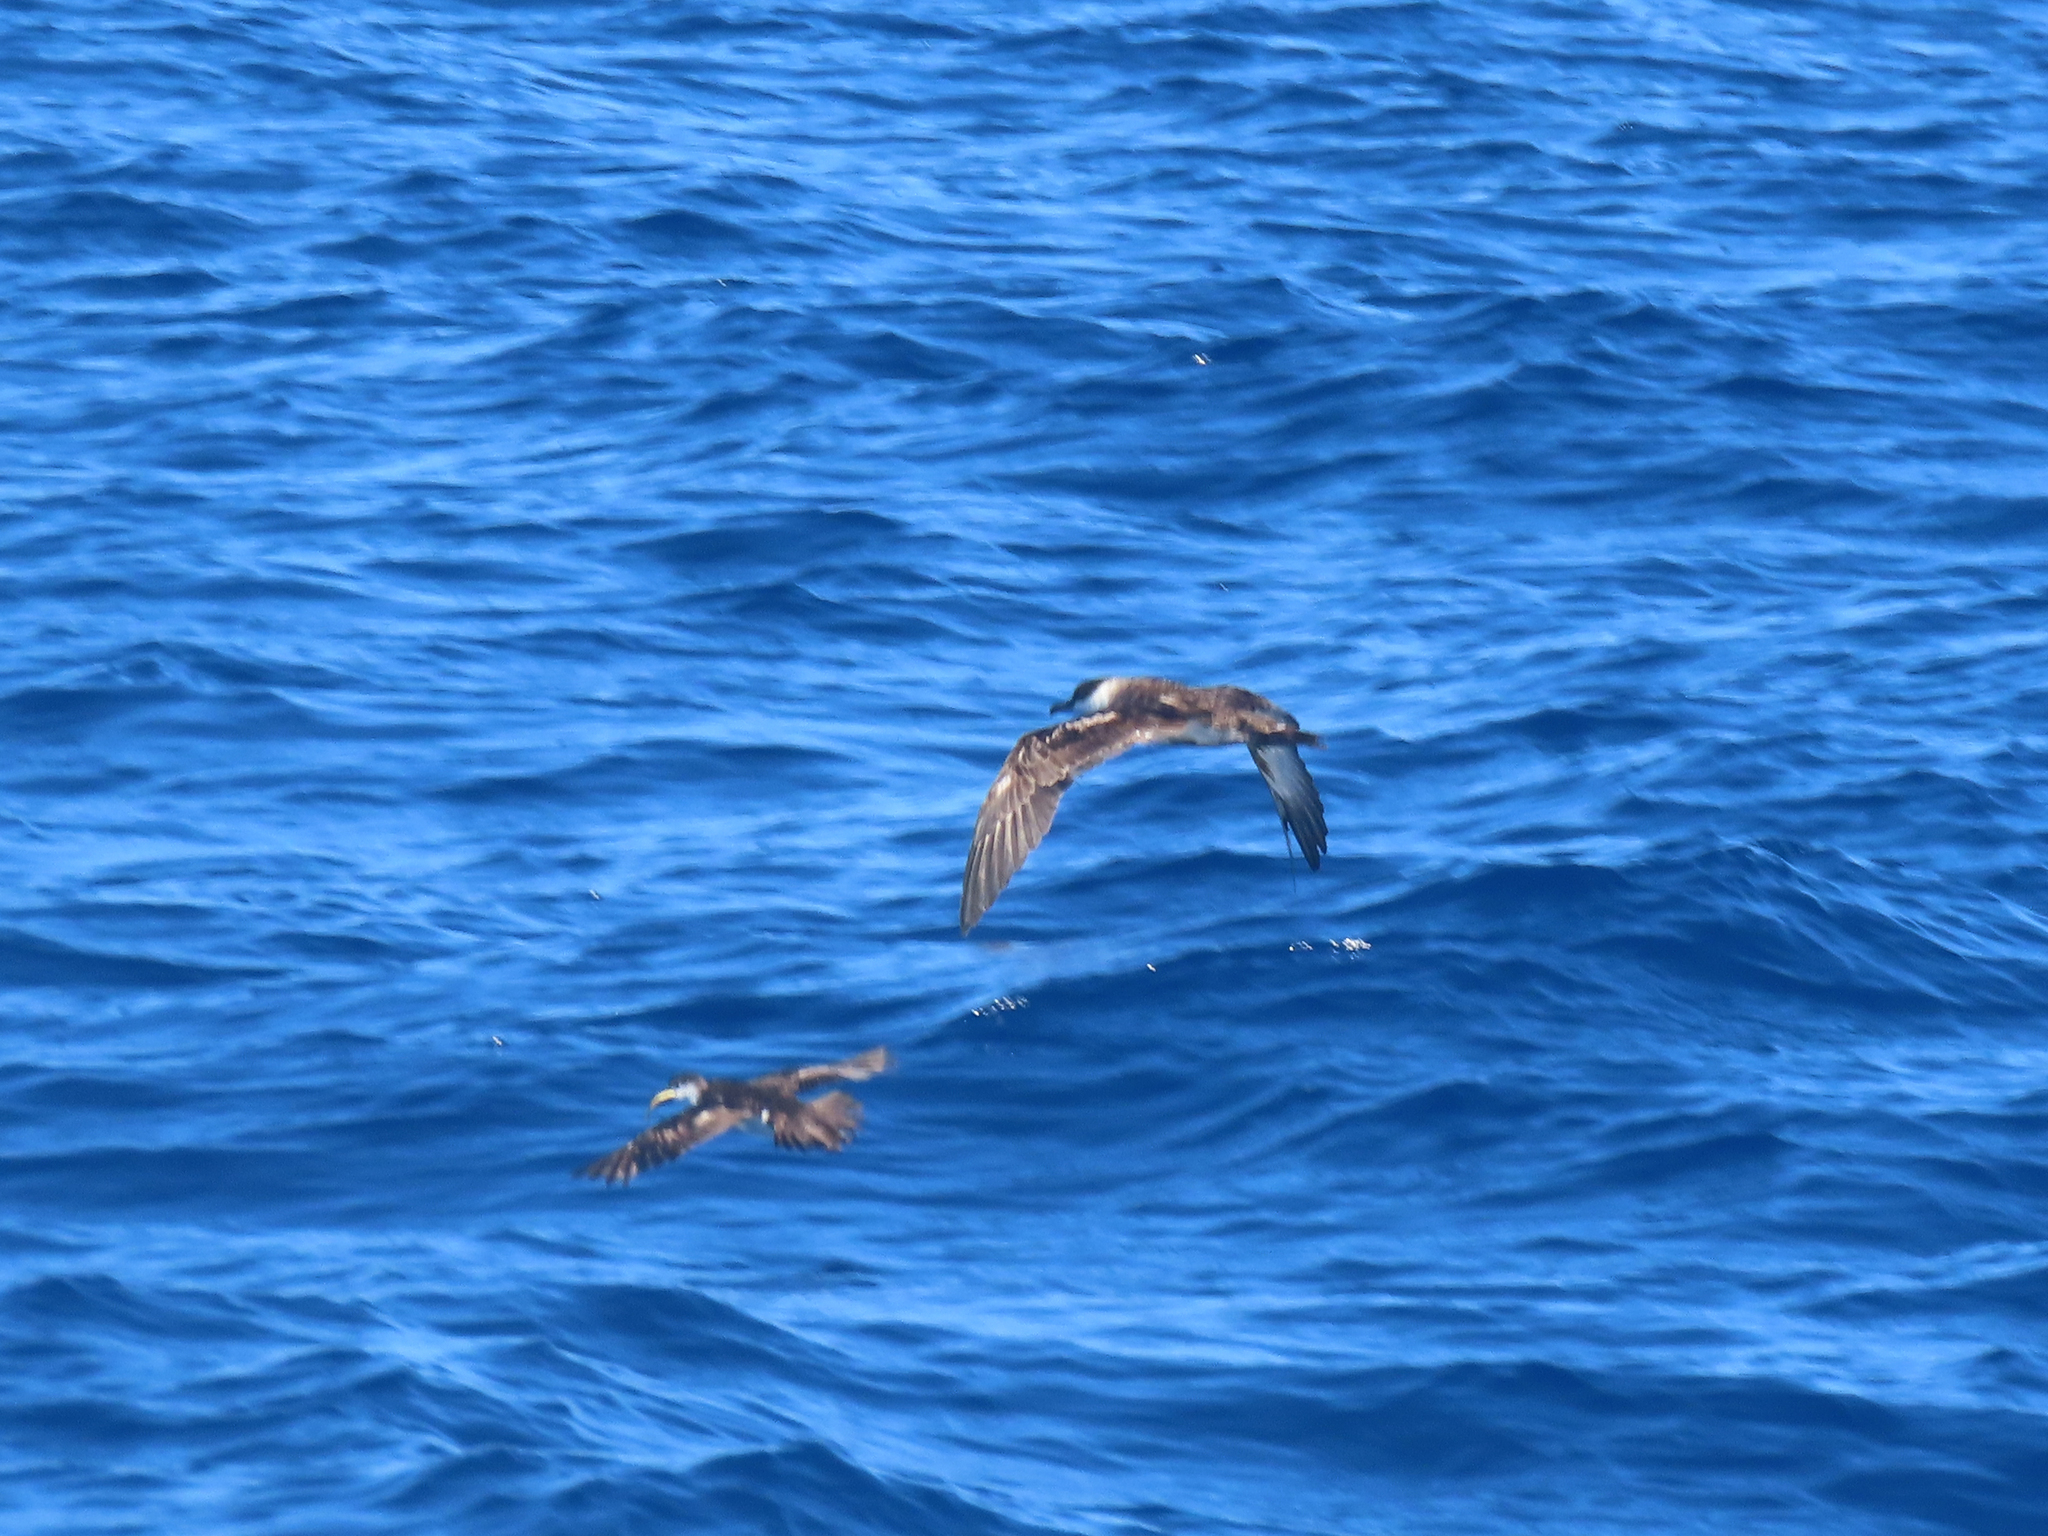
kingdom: Animalia
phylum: Chordata
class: Aves
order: Procellariiformes
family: Procellariidae
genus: Puffinus
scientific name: Puffinus lherminieri
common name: Audubon's shearwater
